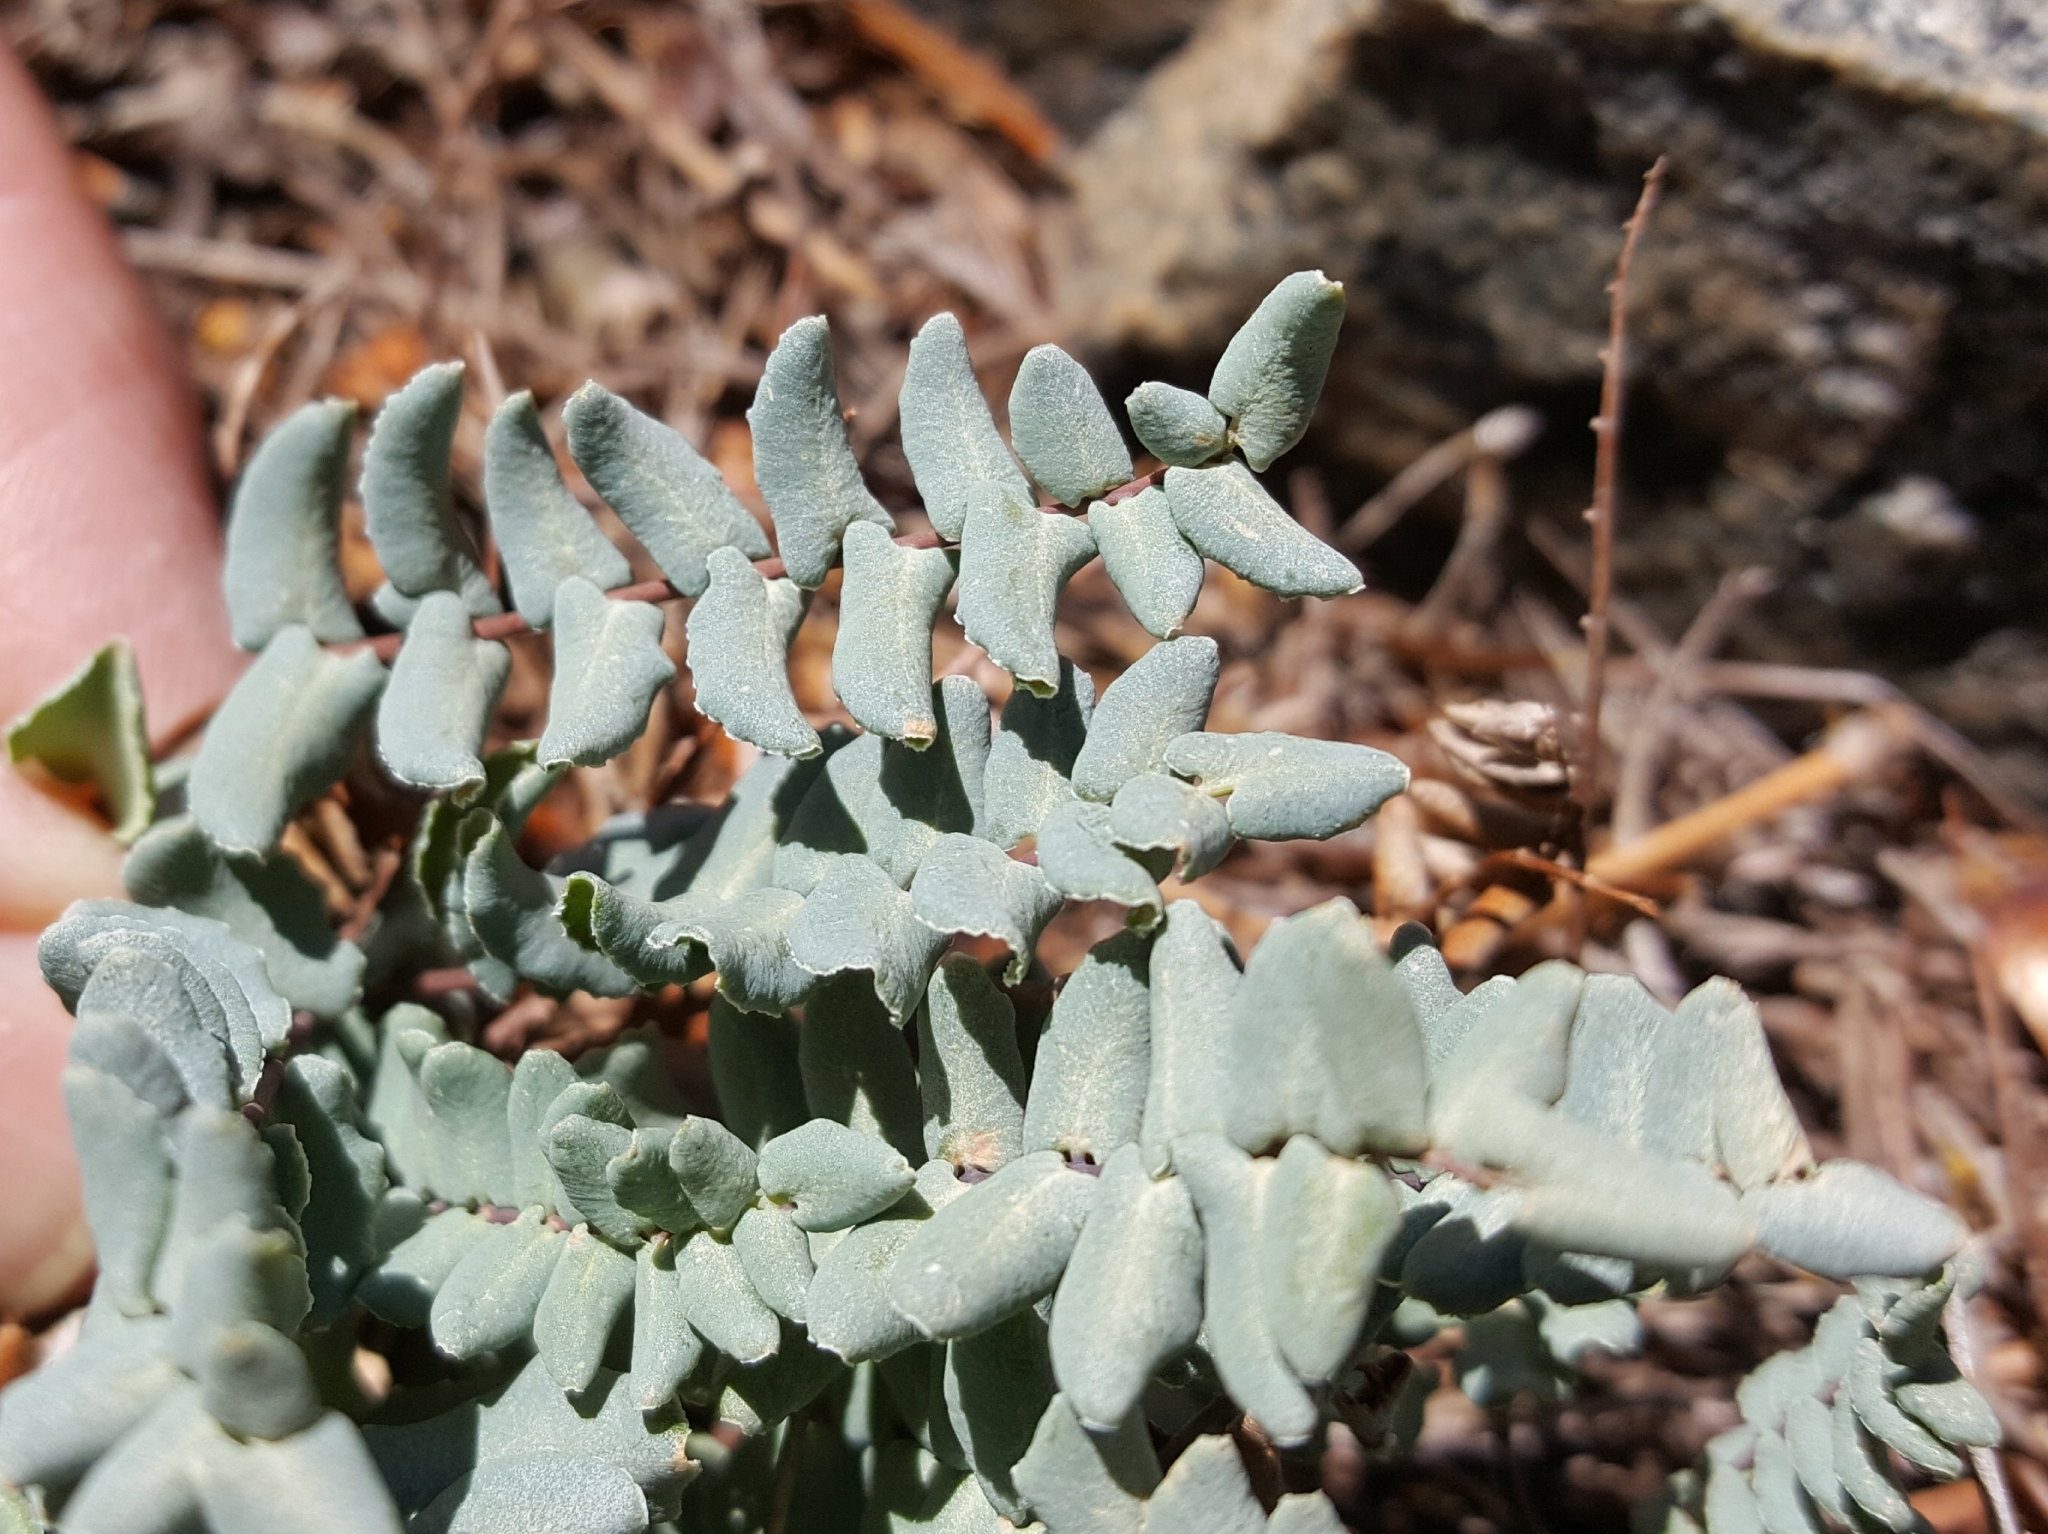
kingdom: Plantae
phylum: Tracheophyta
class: Polypodiopsida
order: Polypodiales
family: Pteridaceae
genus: Pellaea
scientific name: Pellaea bridgesii
